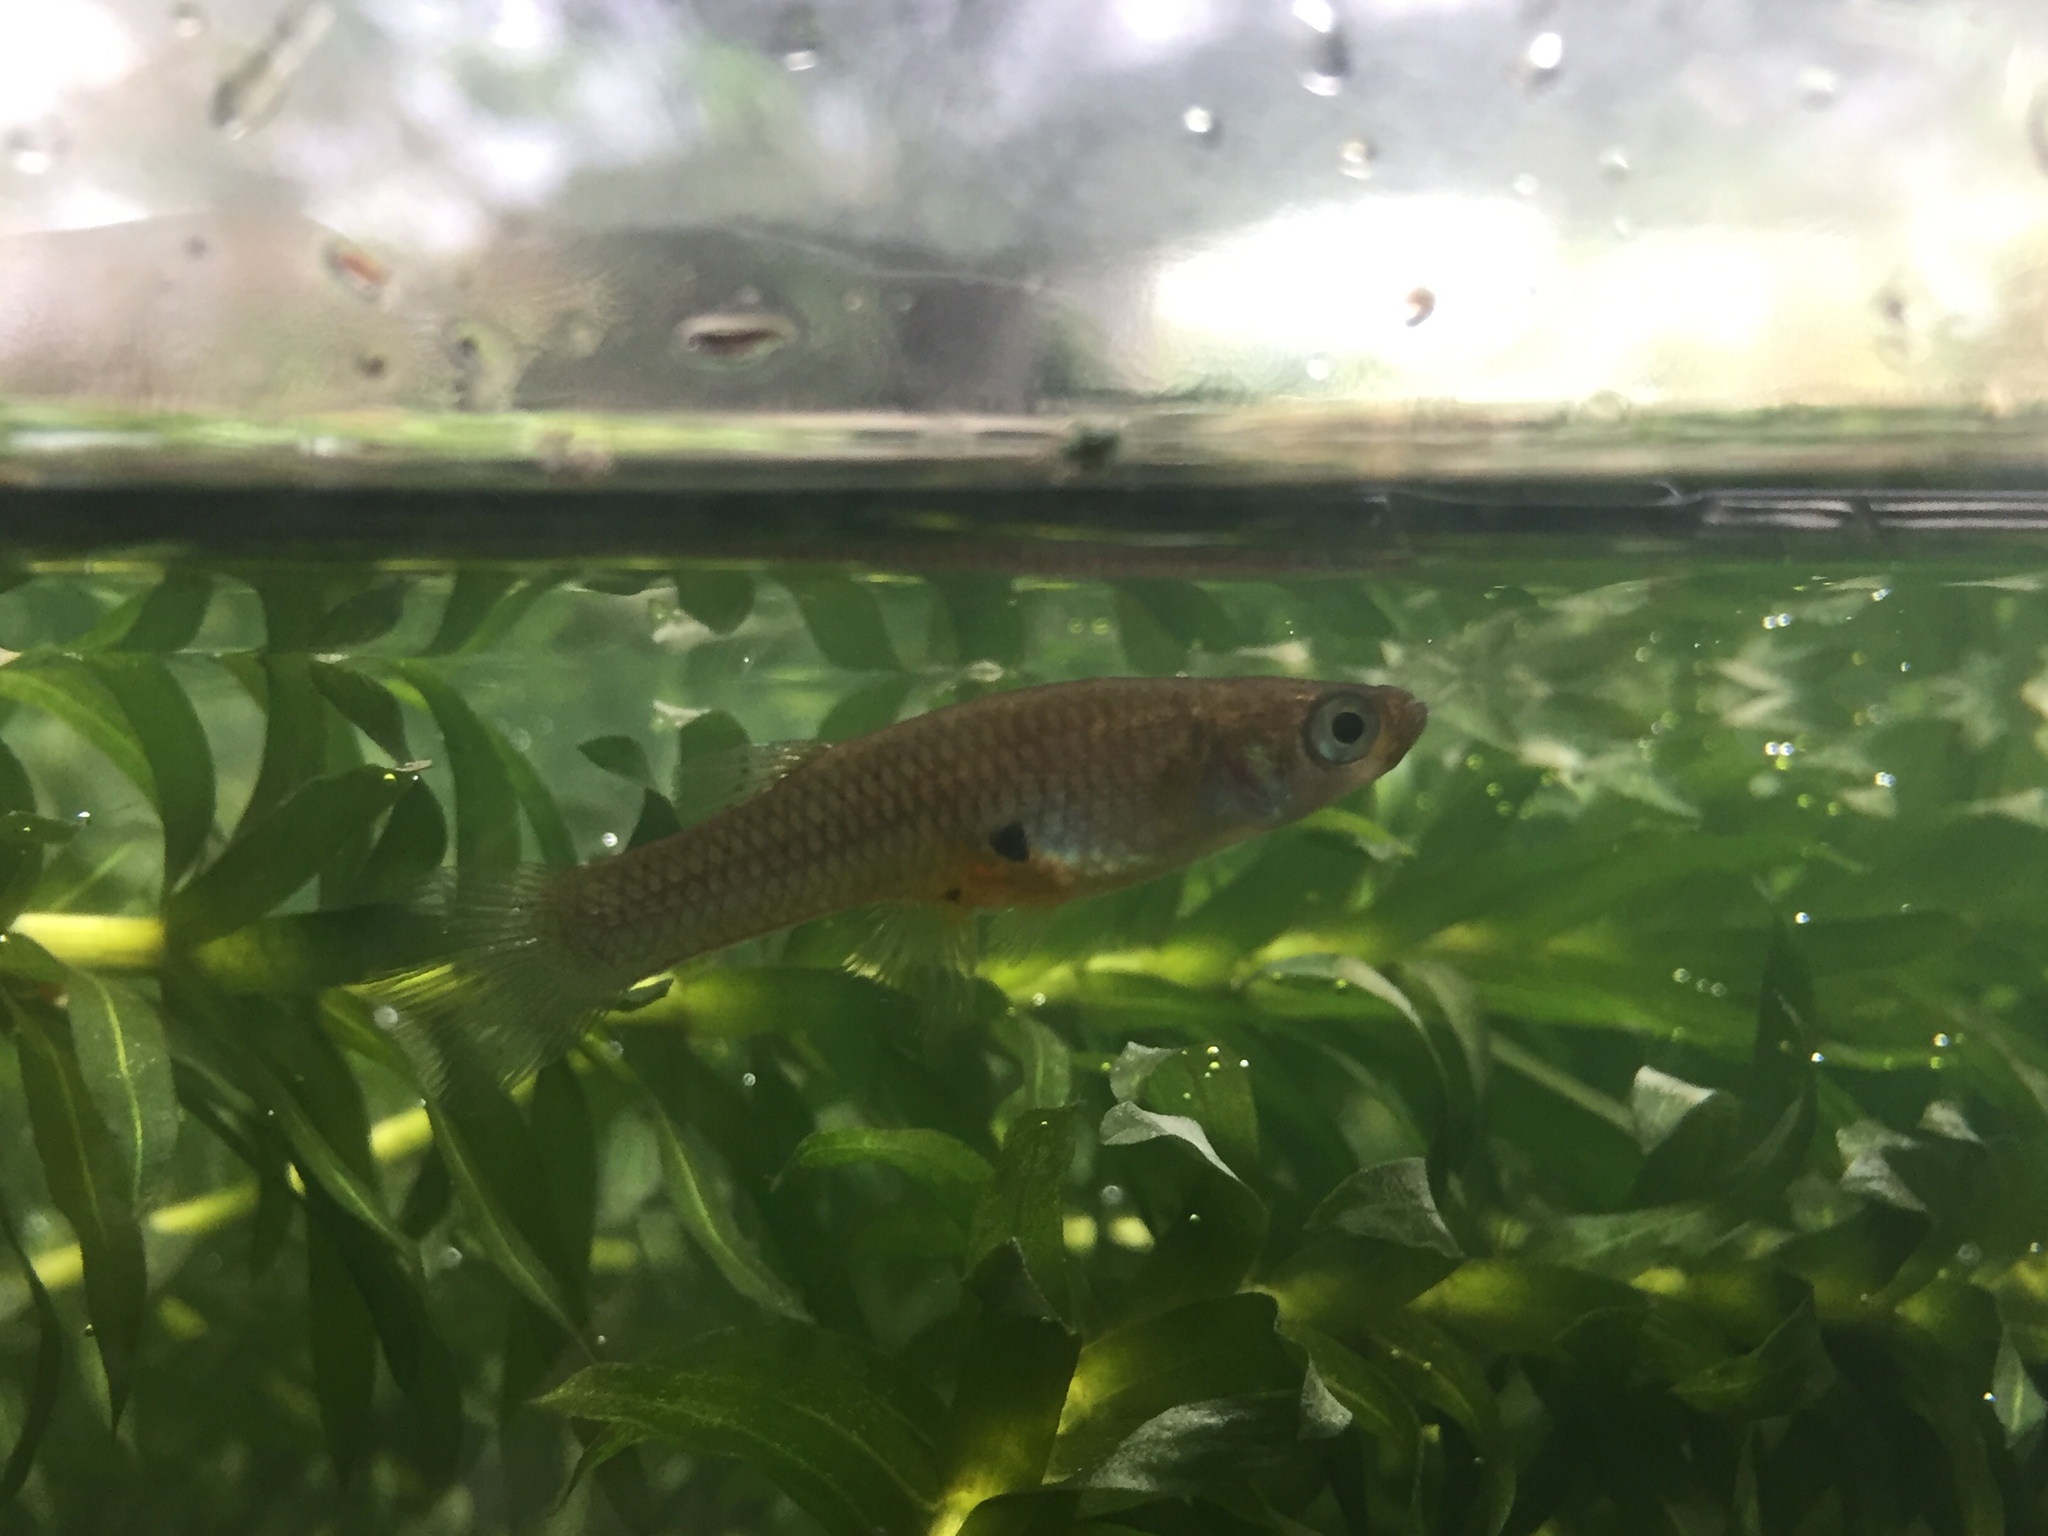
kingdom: Animalia
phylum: Chordata
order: Cyprinodontiformes
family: Poeciliidae
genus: Gambusia
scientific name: Gambusia affinis
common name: Mosquitofish
